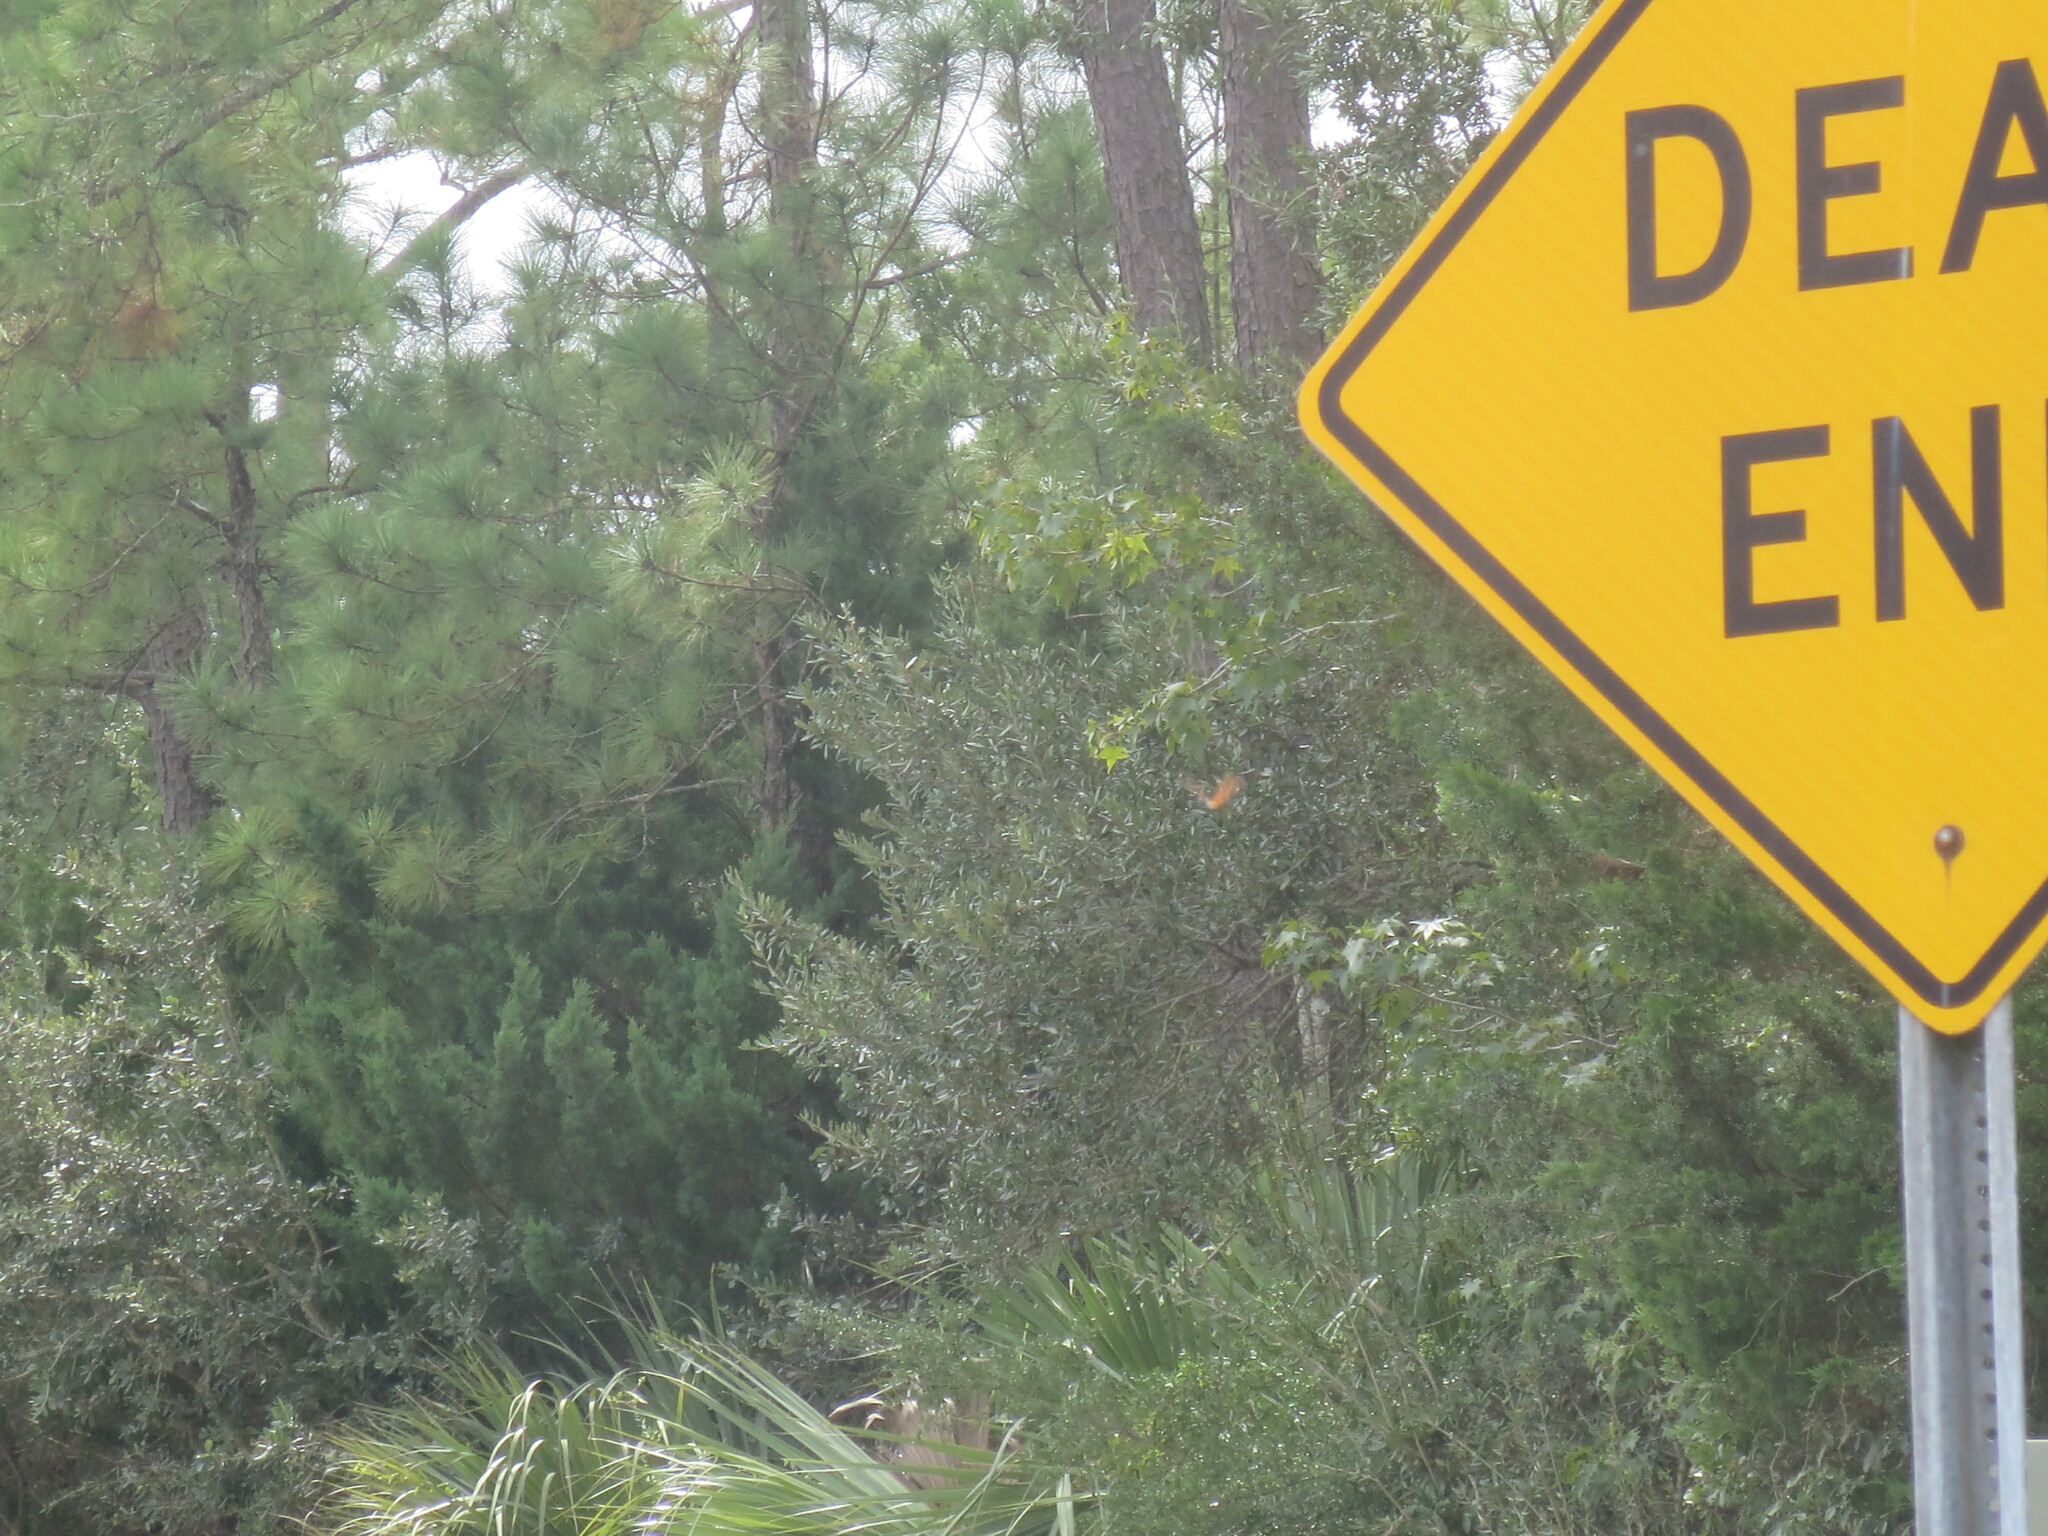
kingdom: Plantae
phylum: Tracheophyta
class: Magnoliopsida
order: Saxifragales
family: Altingiaceae
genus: Liquidambar
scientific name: Liquidambar styraciflua
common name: Sweet gum
